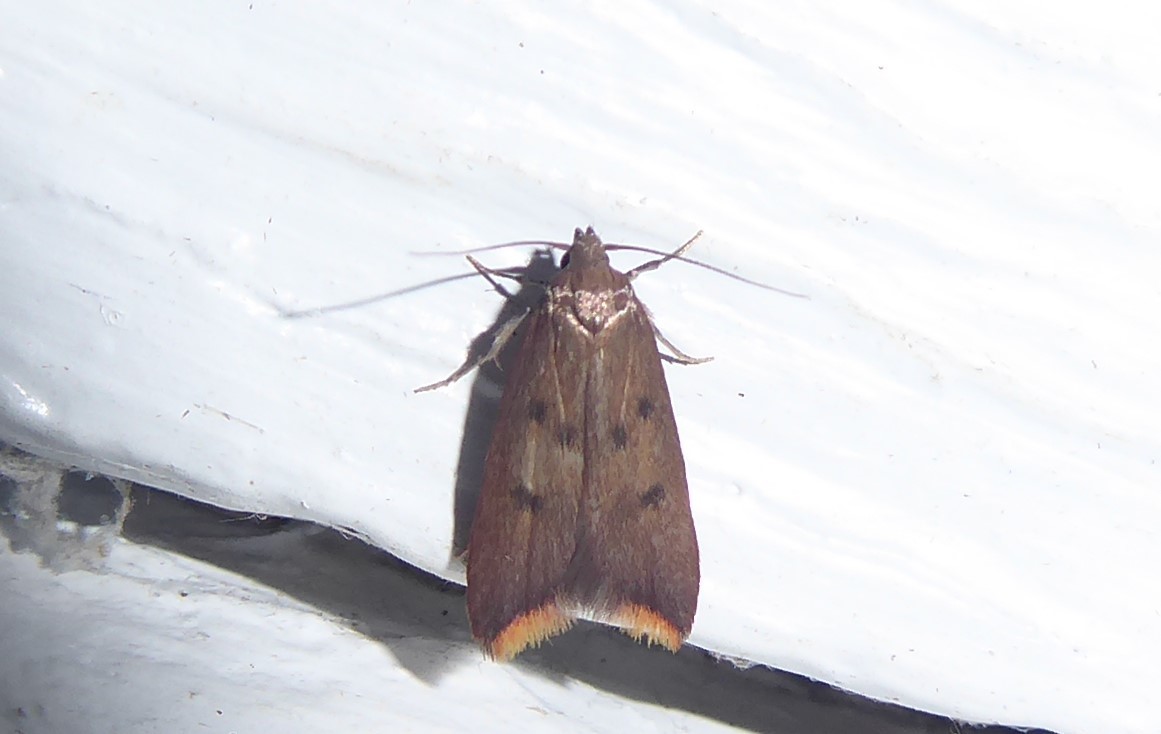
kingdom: Animalia
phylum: Arthropoda
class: Insecta
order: Lepidoptera
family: Oecophoridae
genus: Tachystola
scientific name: Tachystola acroxantha
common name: Ruddy streak
